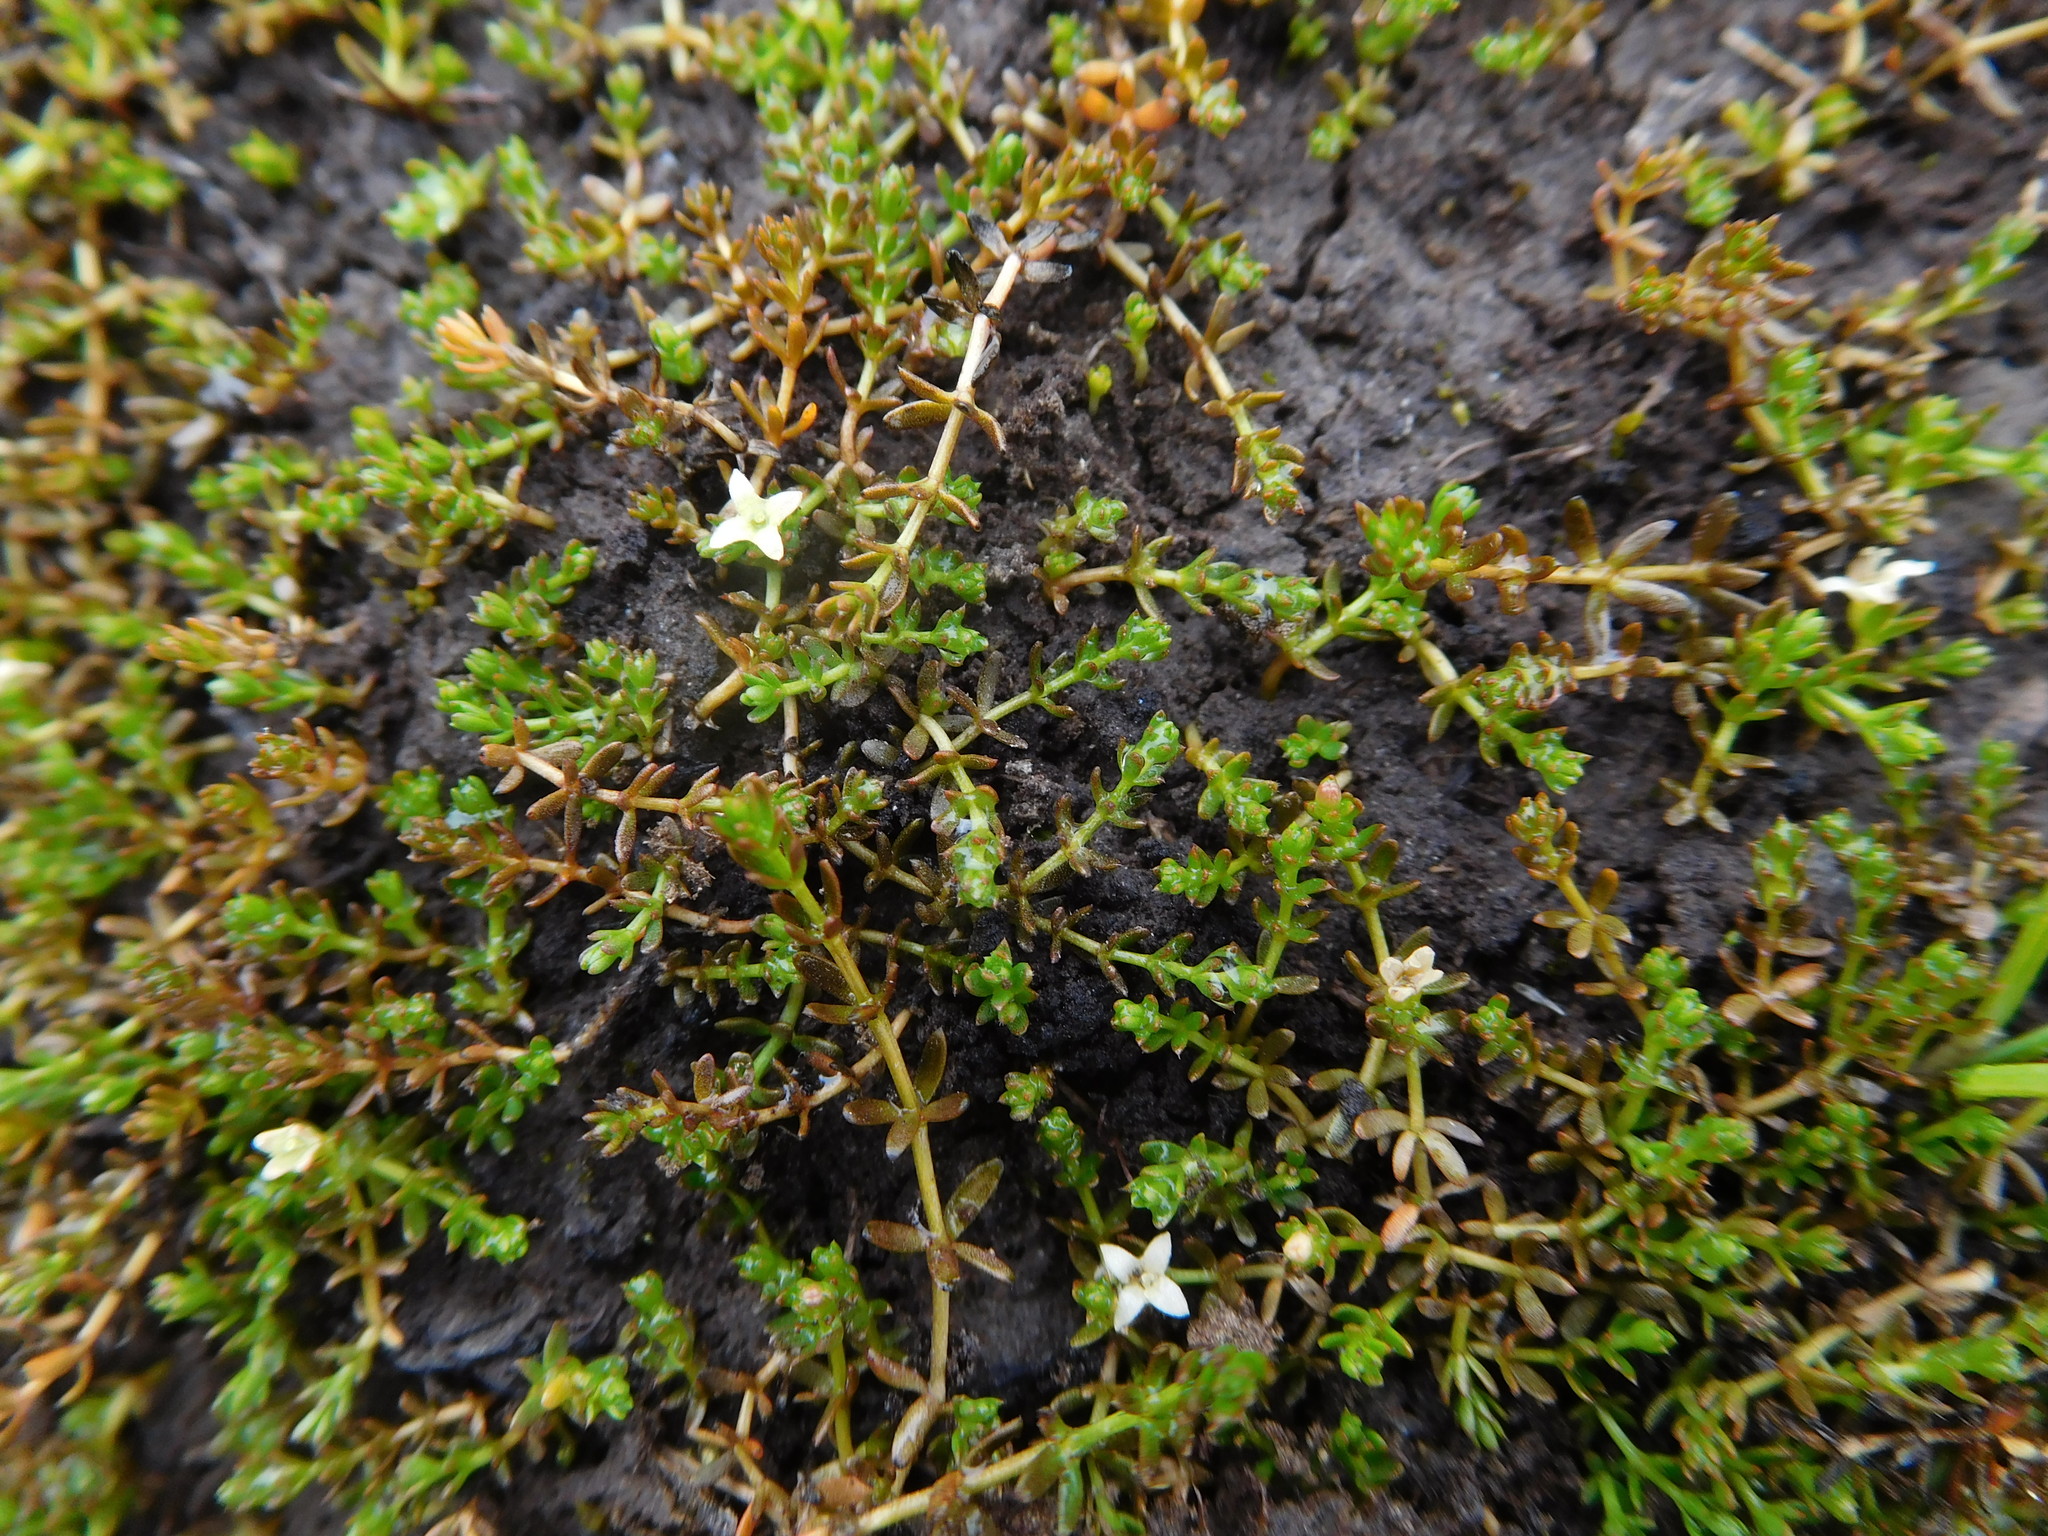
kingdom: Plantae
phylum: Tracheophyta
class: Magnoliopsida
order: Gentianales
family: Rubiaceae
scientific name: Rubiaceae
